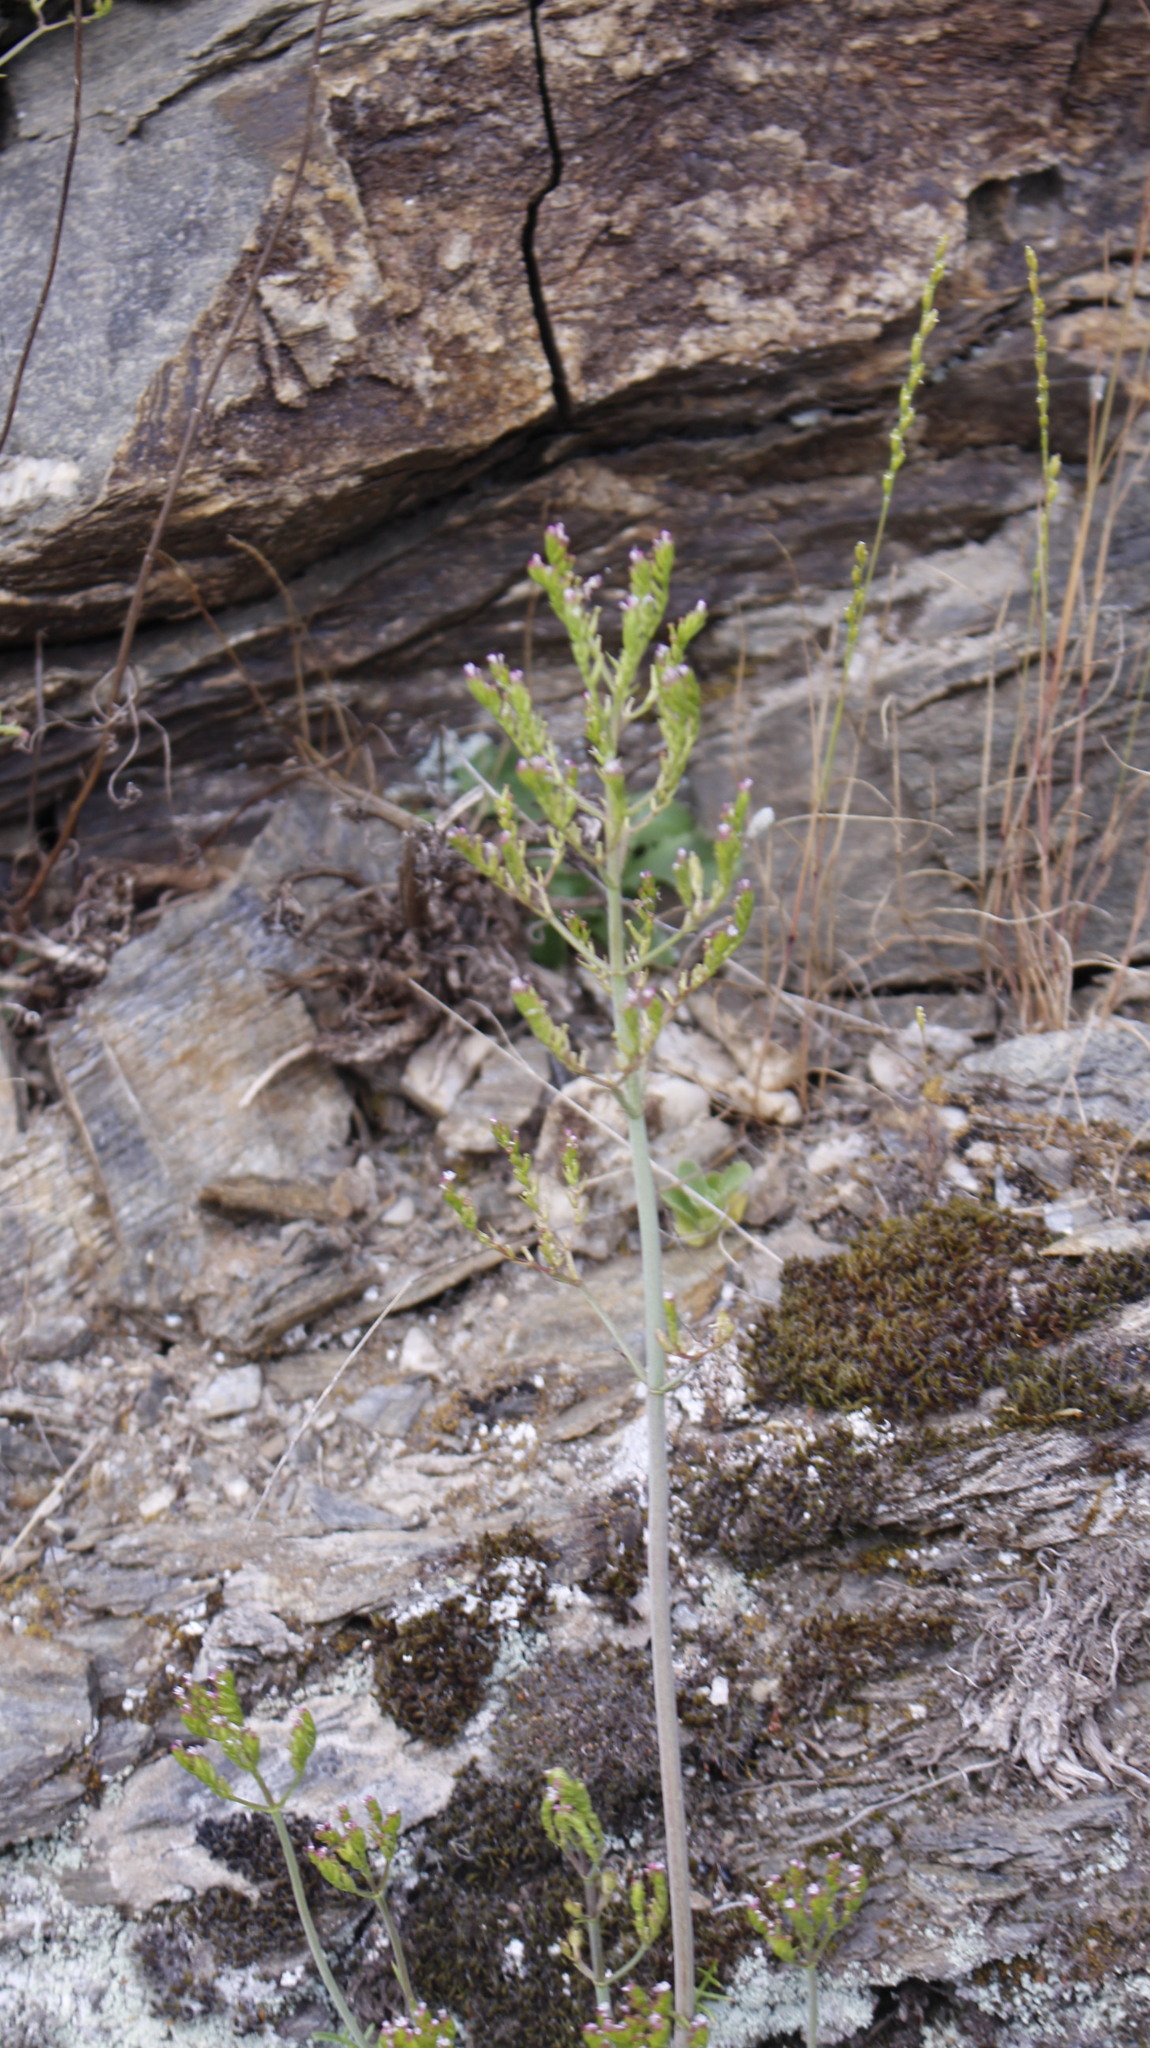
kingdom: Plantae
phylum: Tracheophyta
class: Magnoliopsida
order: Dipsacales
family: Caprifoliaceae
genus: Centranthus
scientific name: Centranthus calcitrapae
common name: Annual valerian
